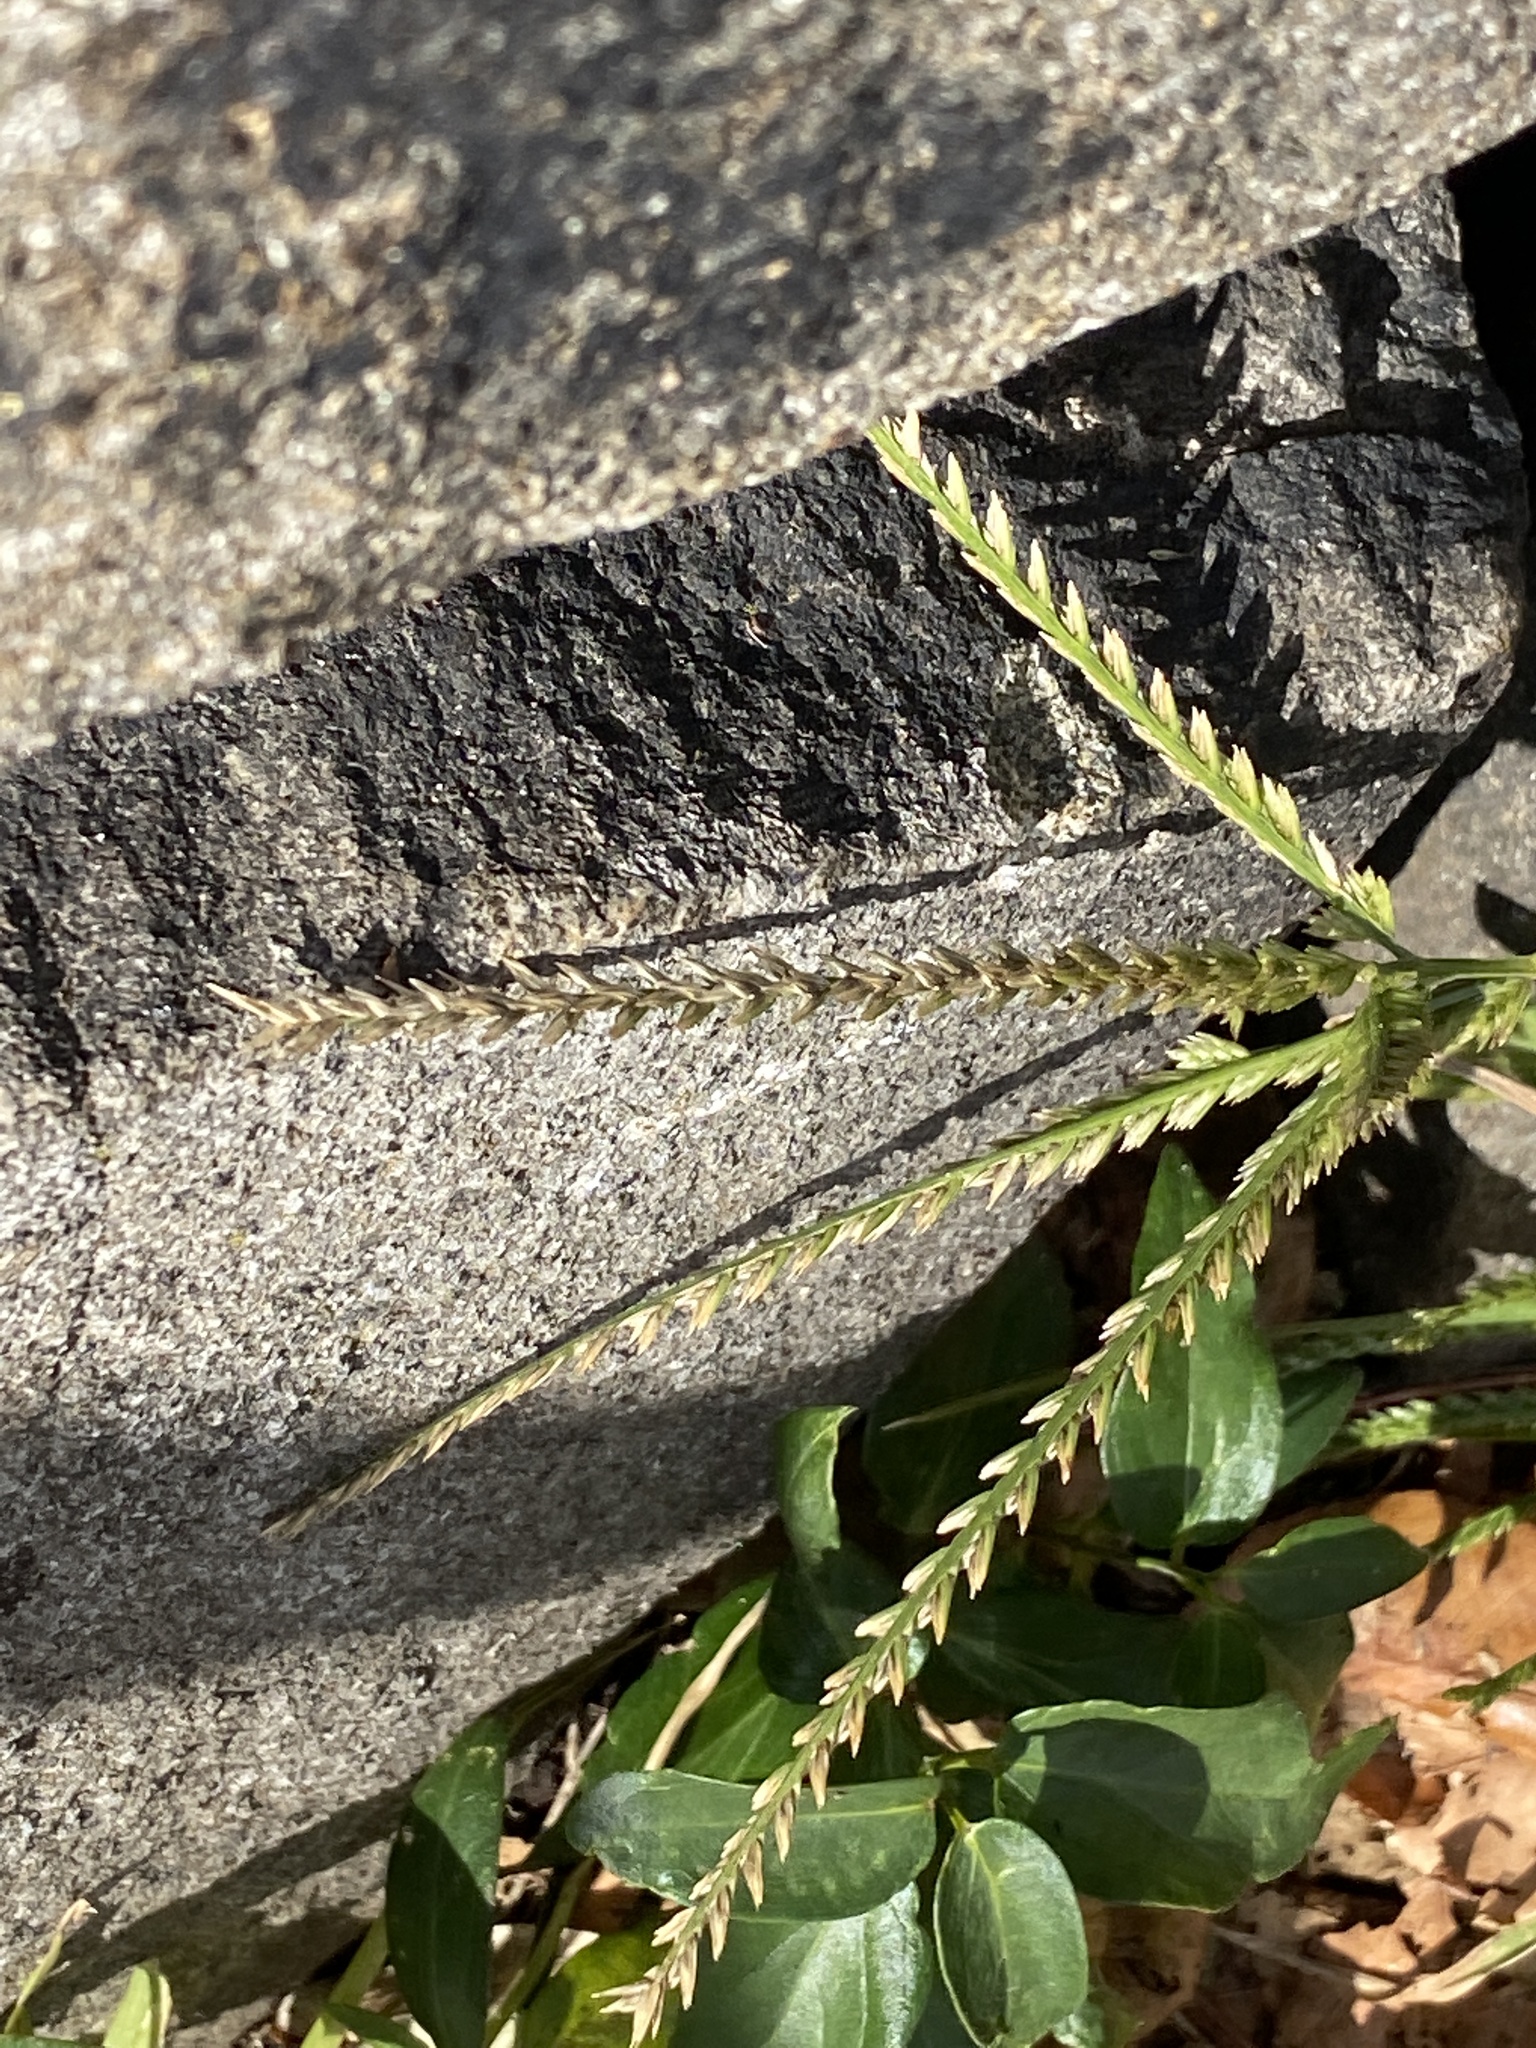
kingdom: Plantae
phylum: Tracheophyta
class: Liliopsida
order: Poales
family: Poaceae
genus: Eleusine
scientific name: Eleusine indica
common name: Yard-grass
